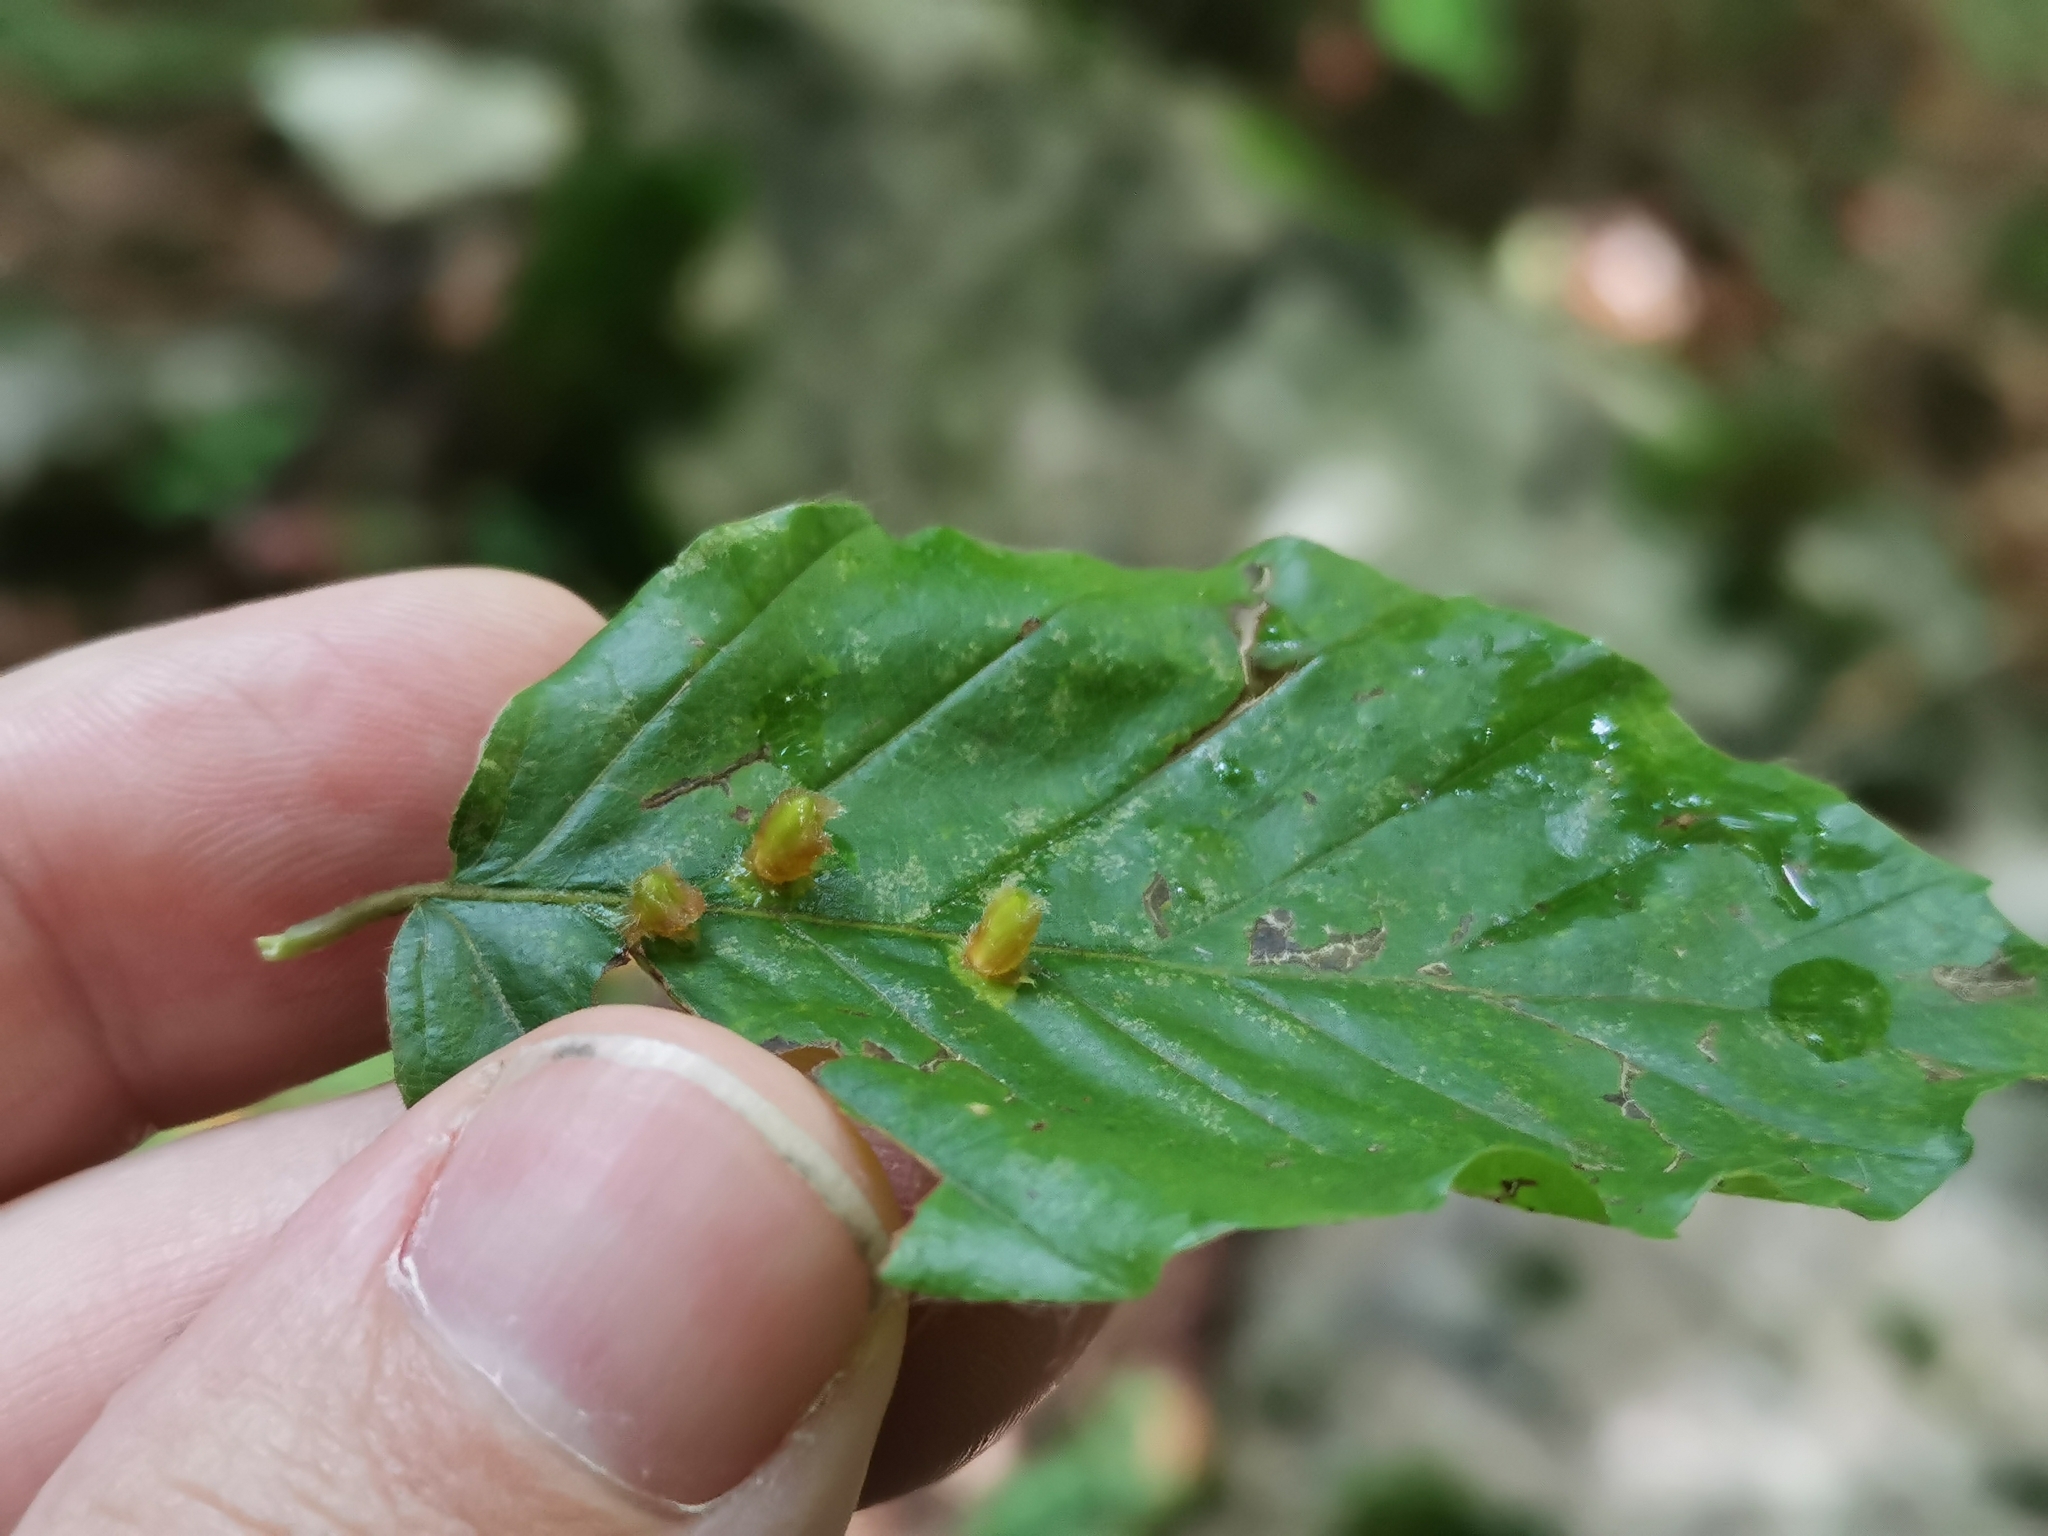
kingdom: Animalia
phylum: Arthropoda
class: Insecta
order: Diptera
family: Cecidomyiidae
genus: Hartigiola
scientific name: Hartigiola annulipes
